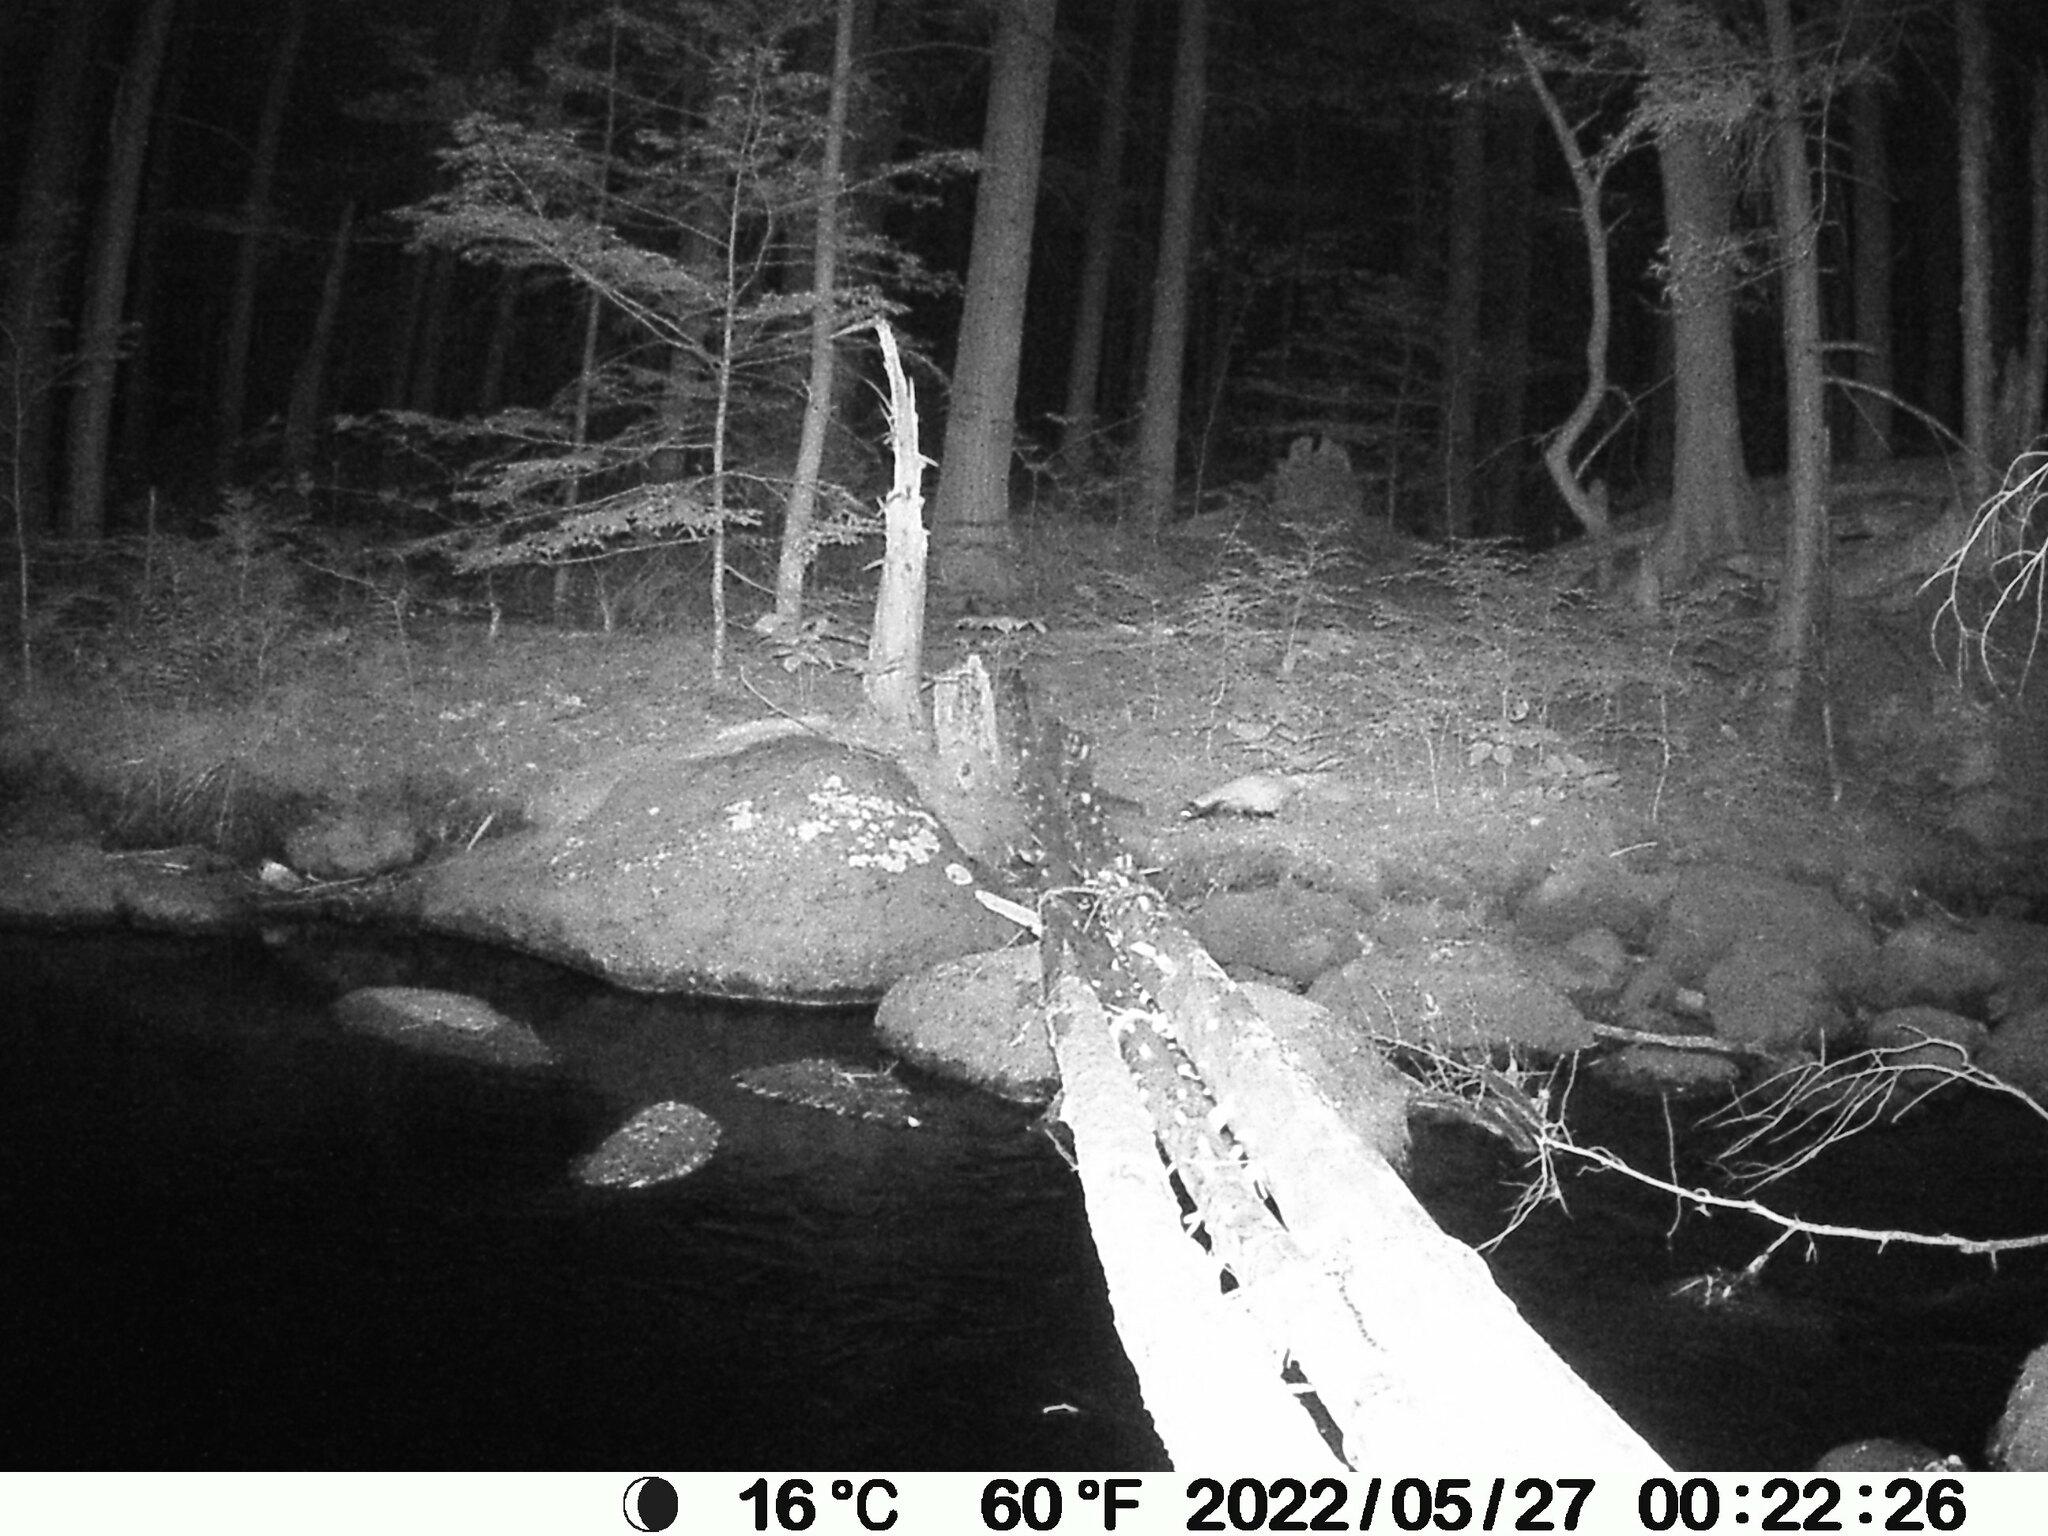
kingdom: Animalia
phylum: Chordata
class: Mammalia
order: Carnivora
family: Mephitidae
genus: Mephitis
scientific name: Mephitis mephitis
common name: Striped skunk
